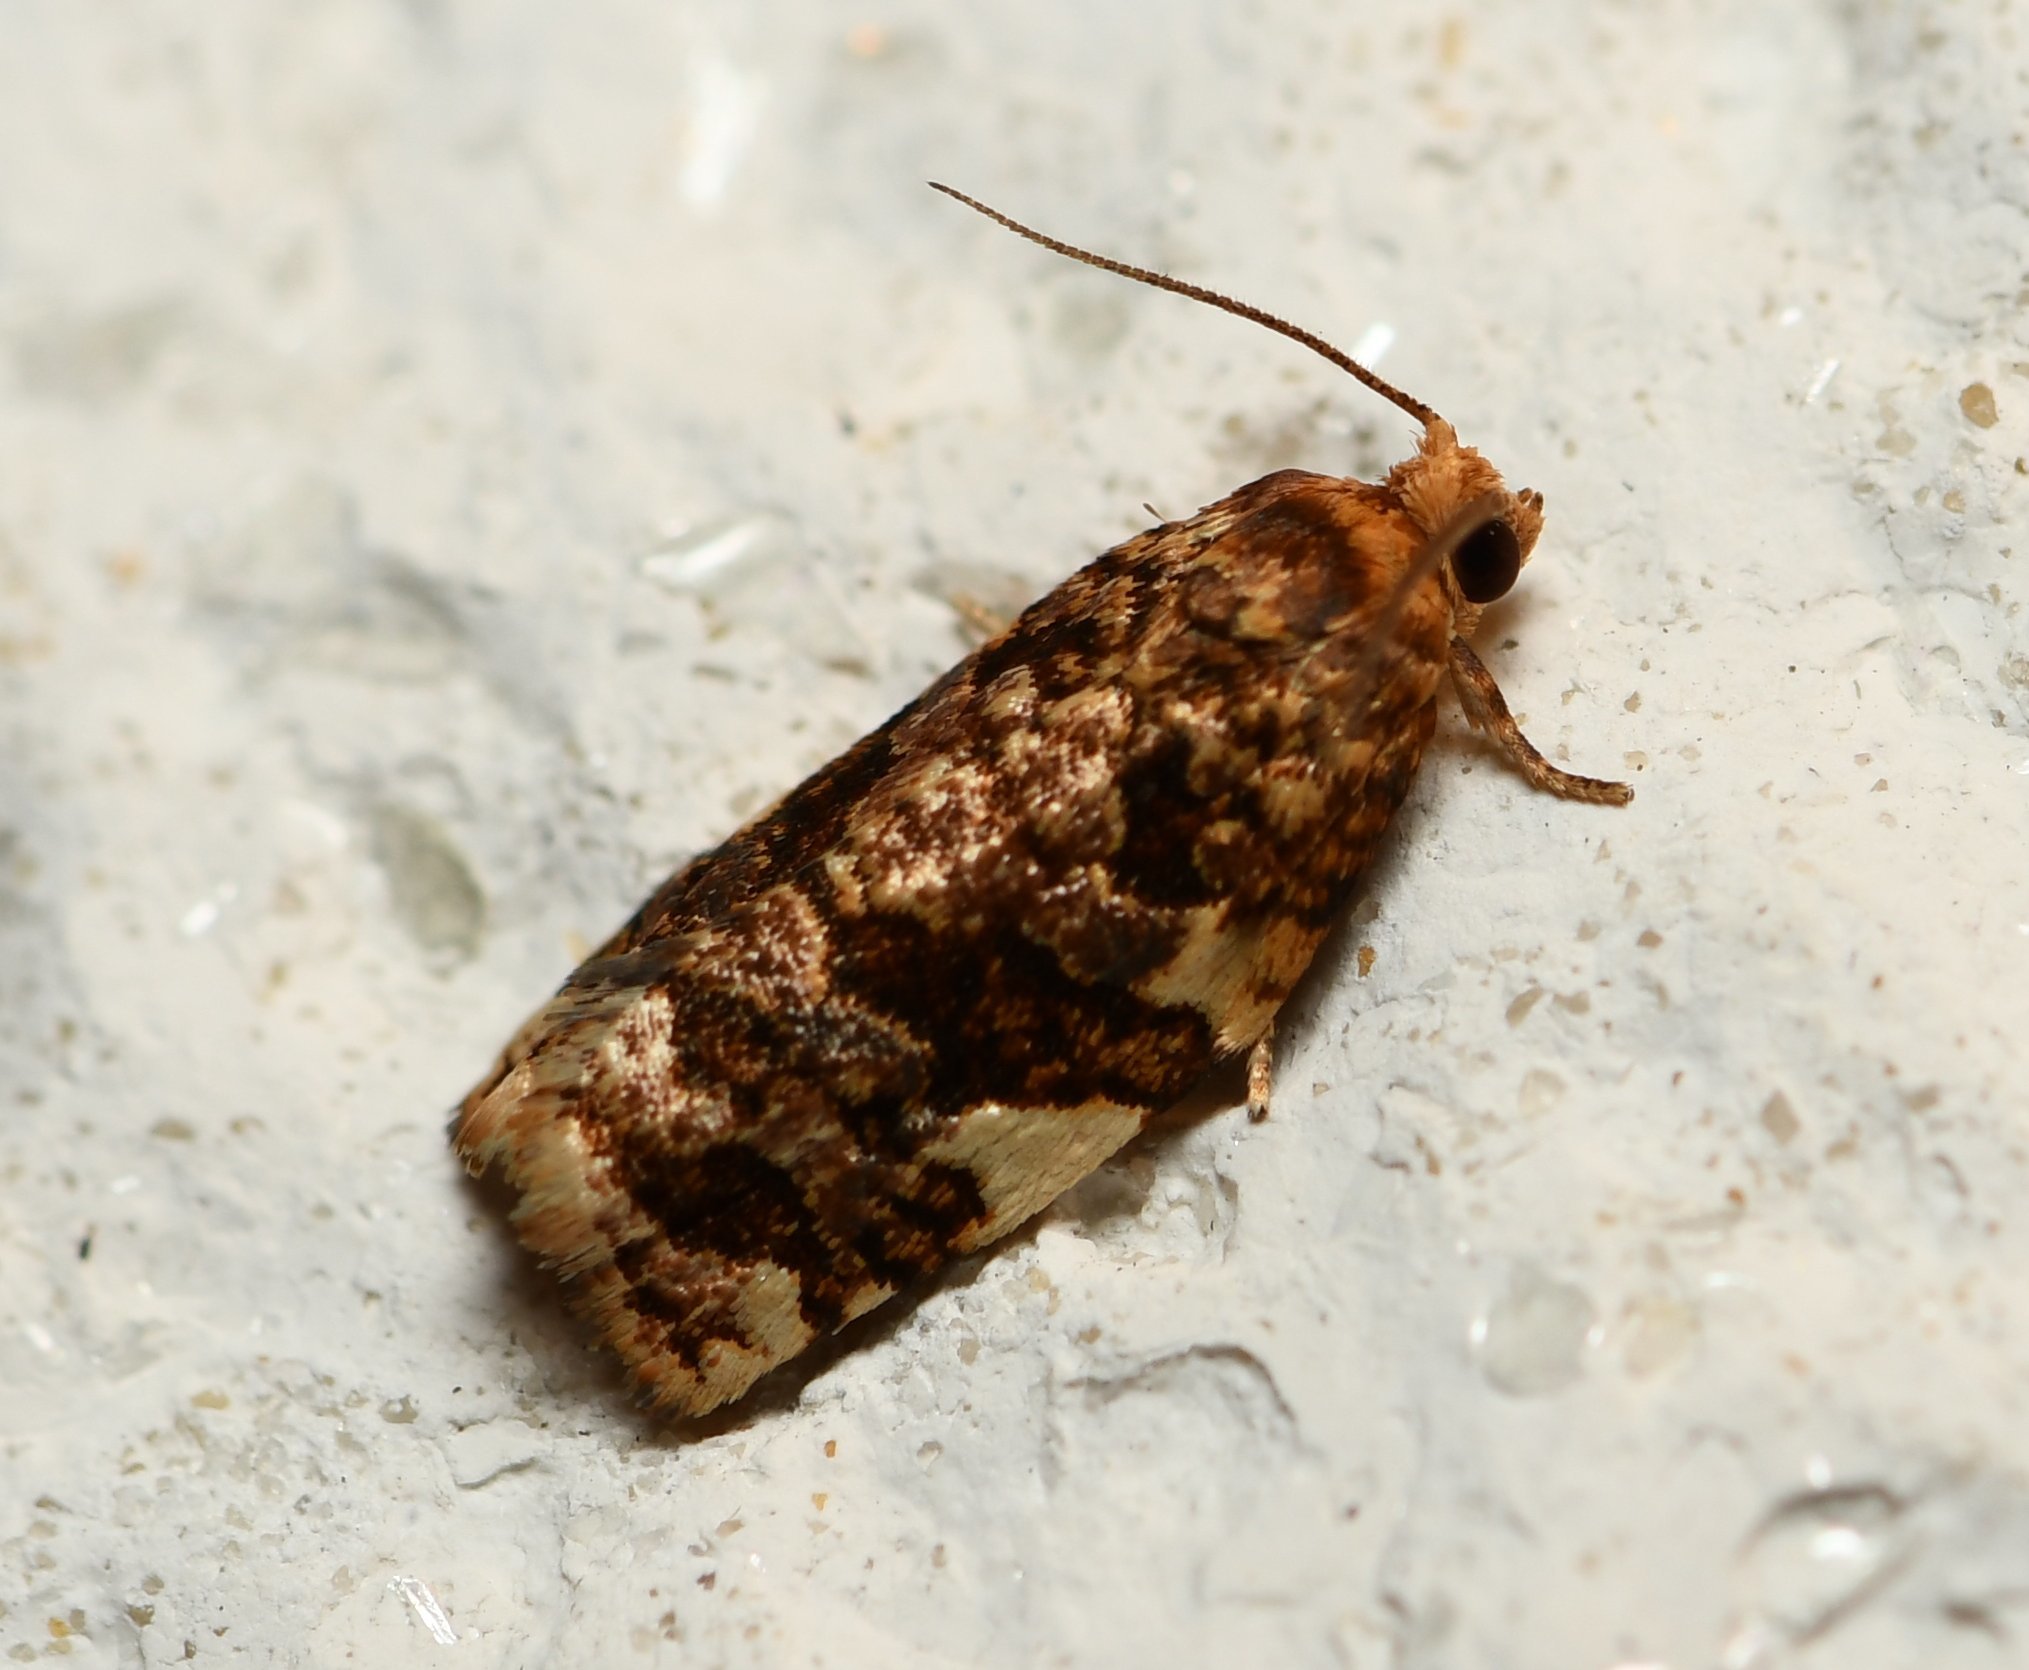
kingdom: Animalia
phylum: Arthropoda
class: Insecta
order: Lepidoptera
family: Tortricidae
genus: Archips
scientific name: Archips argyrospila
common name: Fruit-tree leafroller moth
